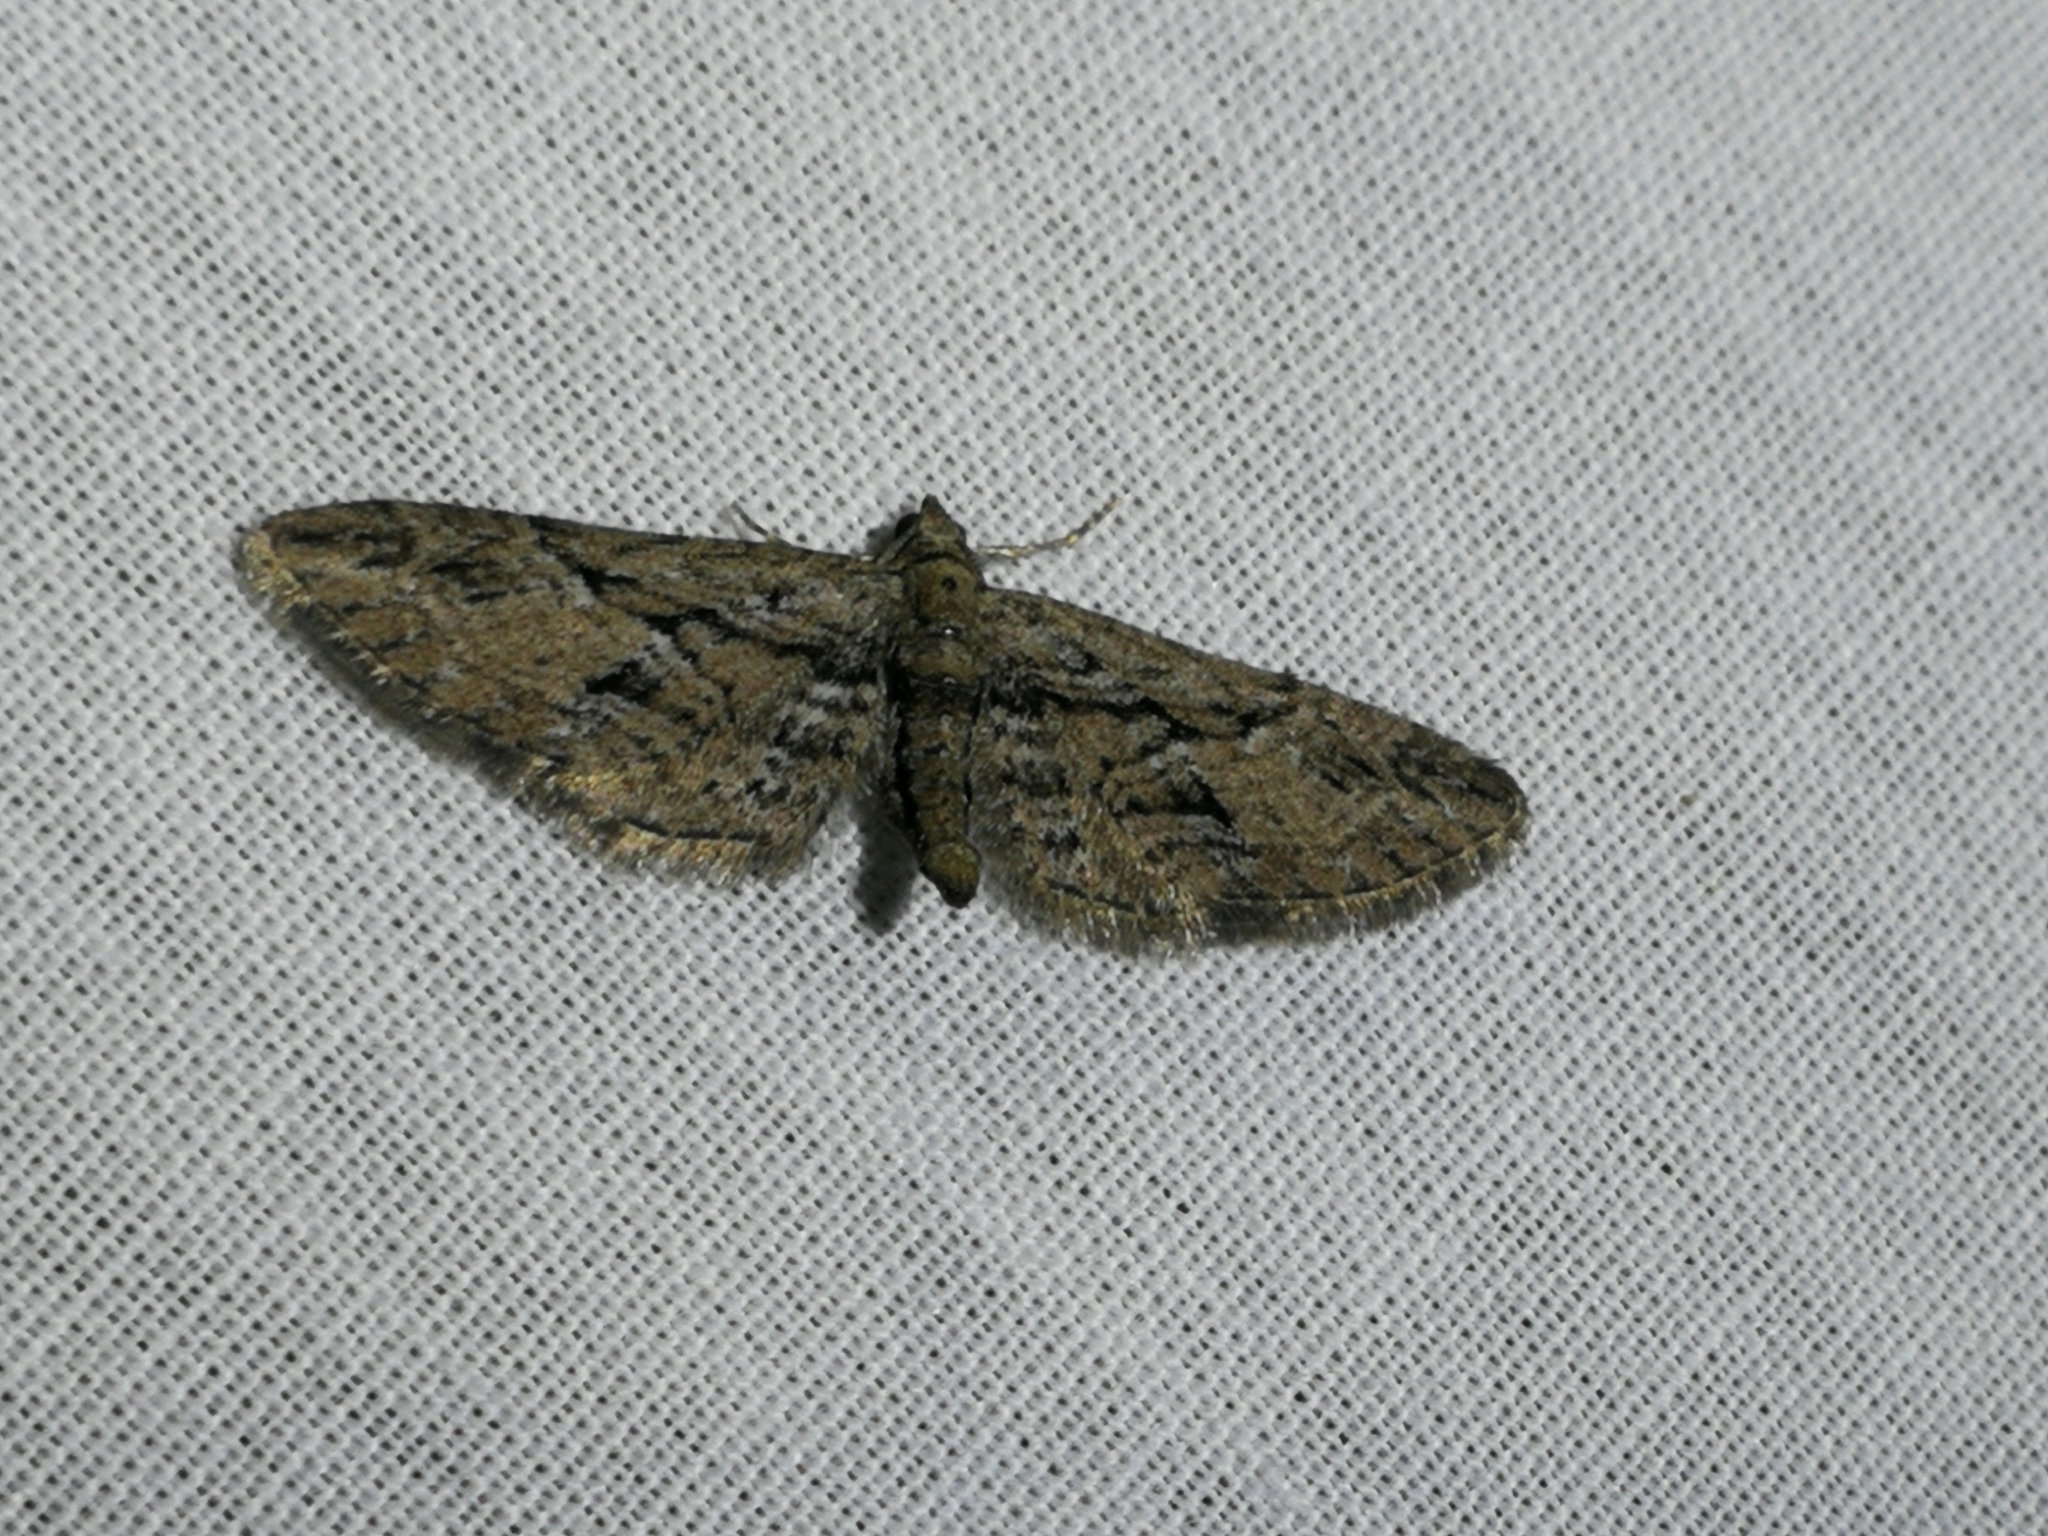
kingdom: Animalia
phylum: Arthropoda
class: Insecta
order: Lepidoptera
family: Geometridae
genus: Eupithecia
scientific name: Eupithecia oxycedrata
